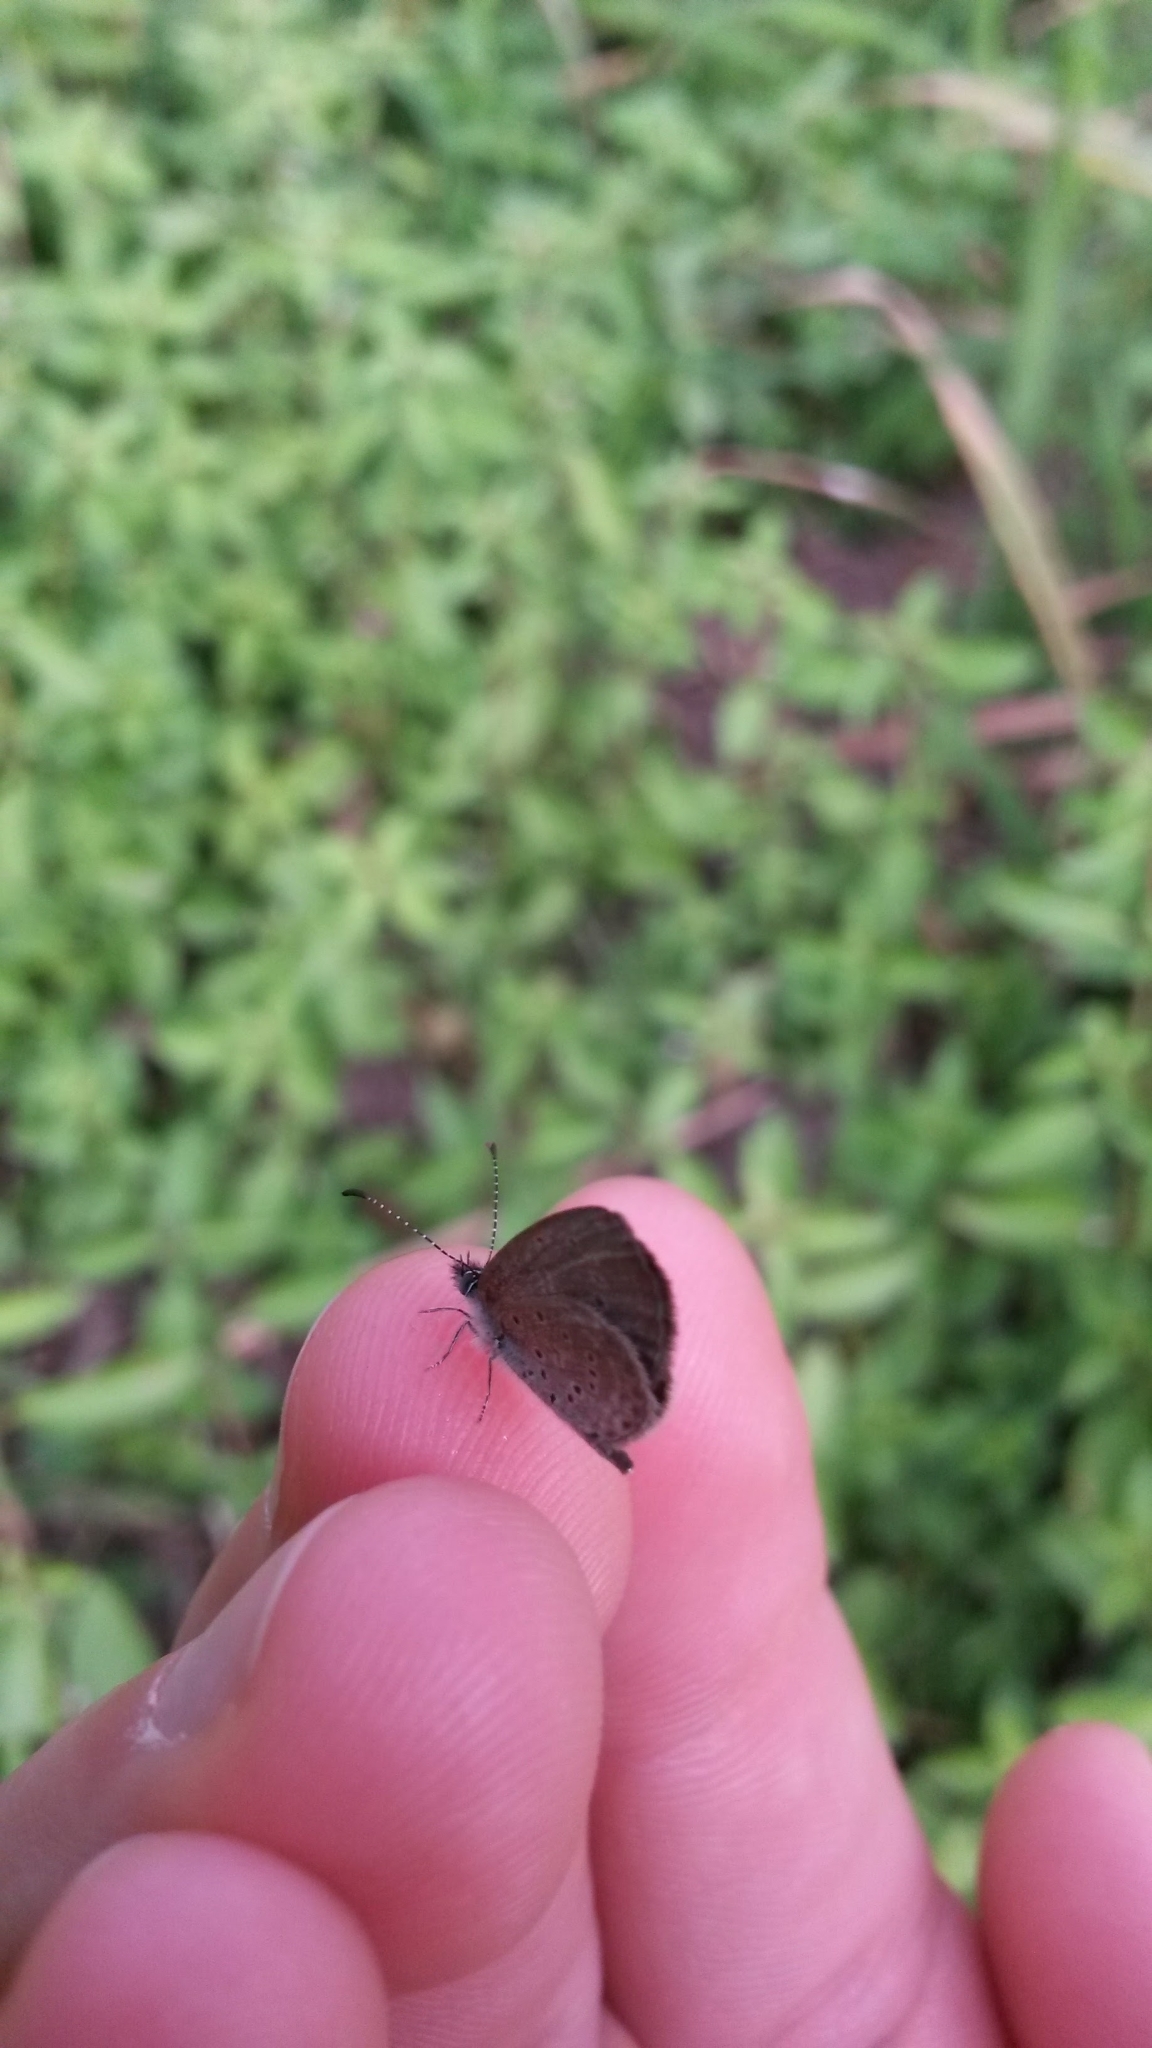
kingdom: Animalia
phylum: Arthropoda
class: Insecta
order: Lepidoptera
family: Lycaenidae
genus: Zizula
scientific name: Zizula hylax
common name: Gaika blue
